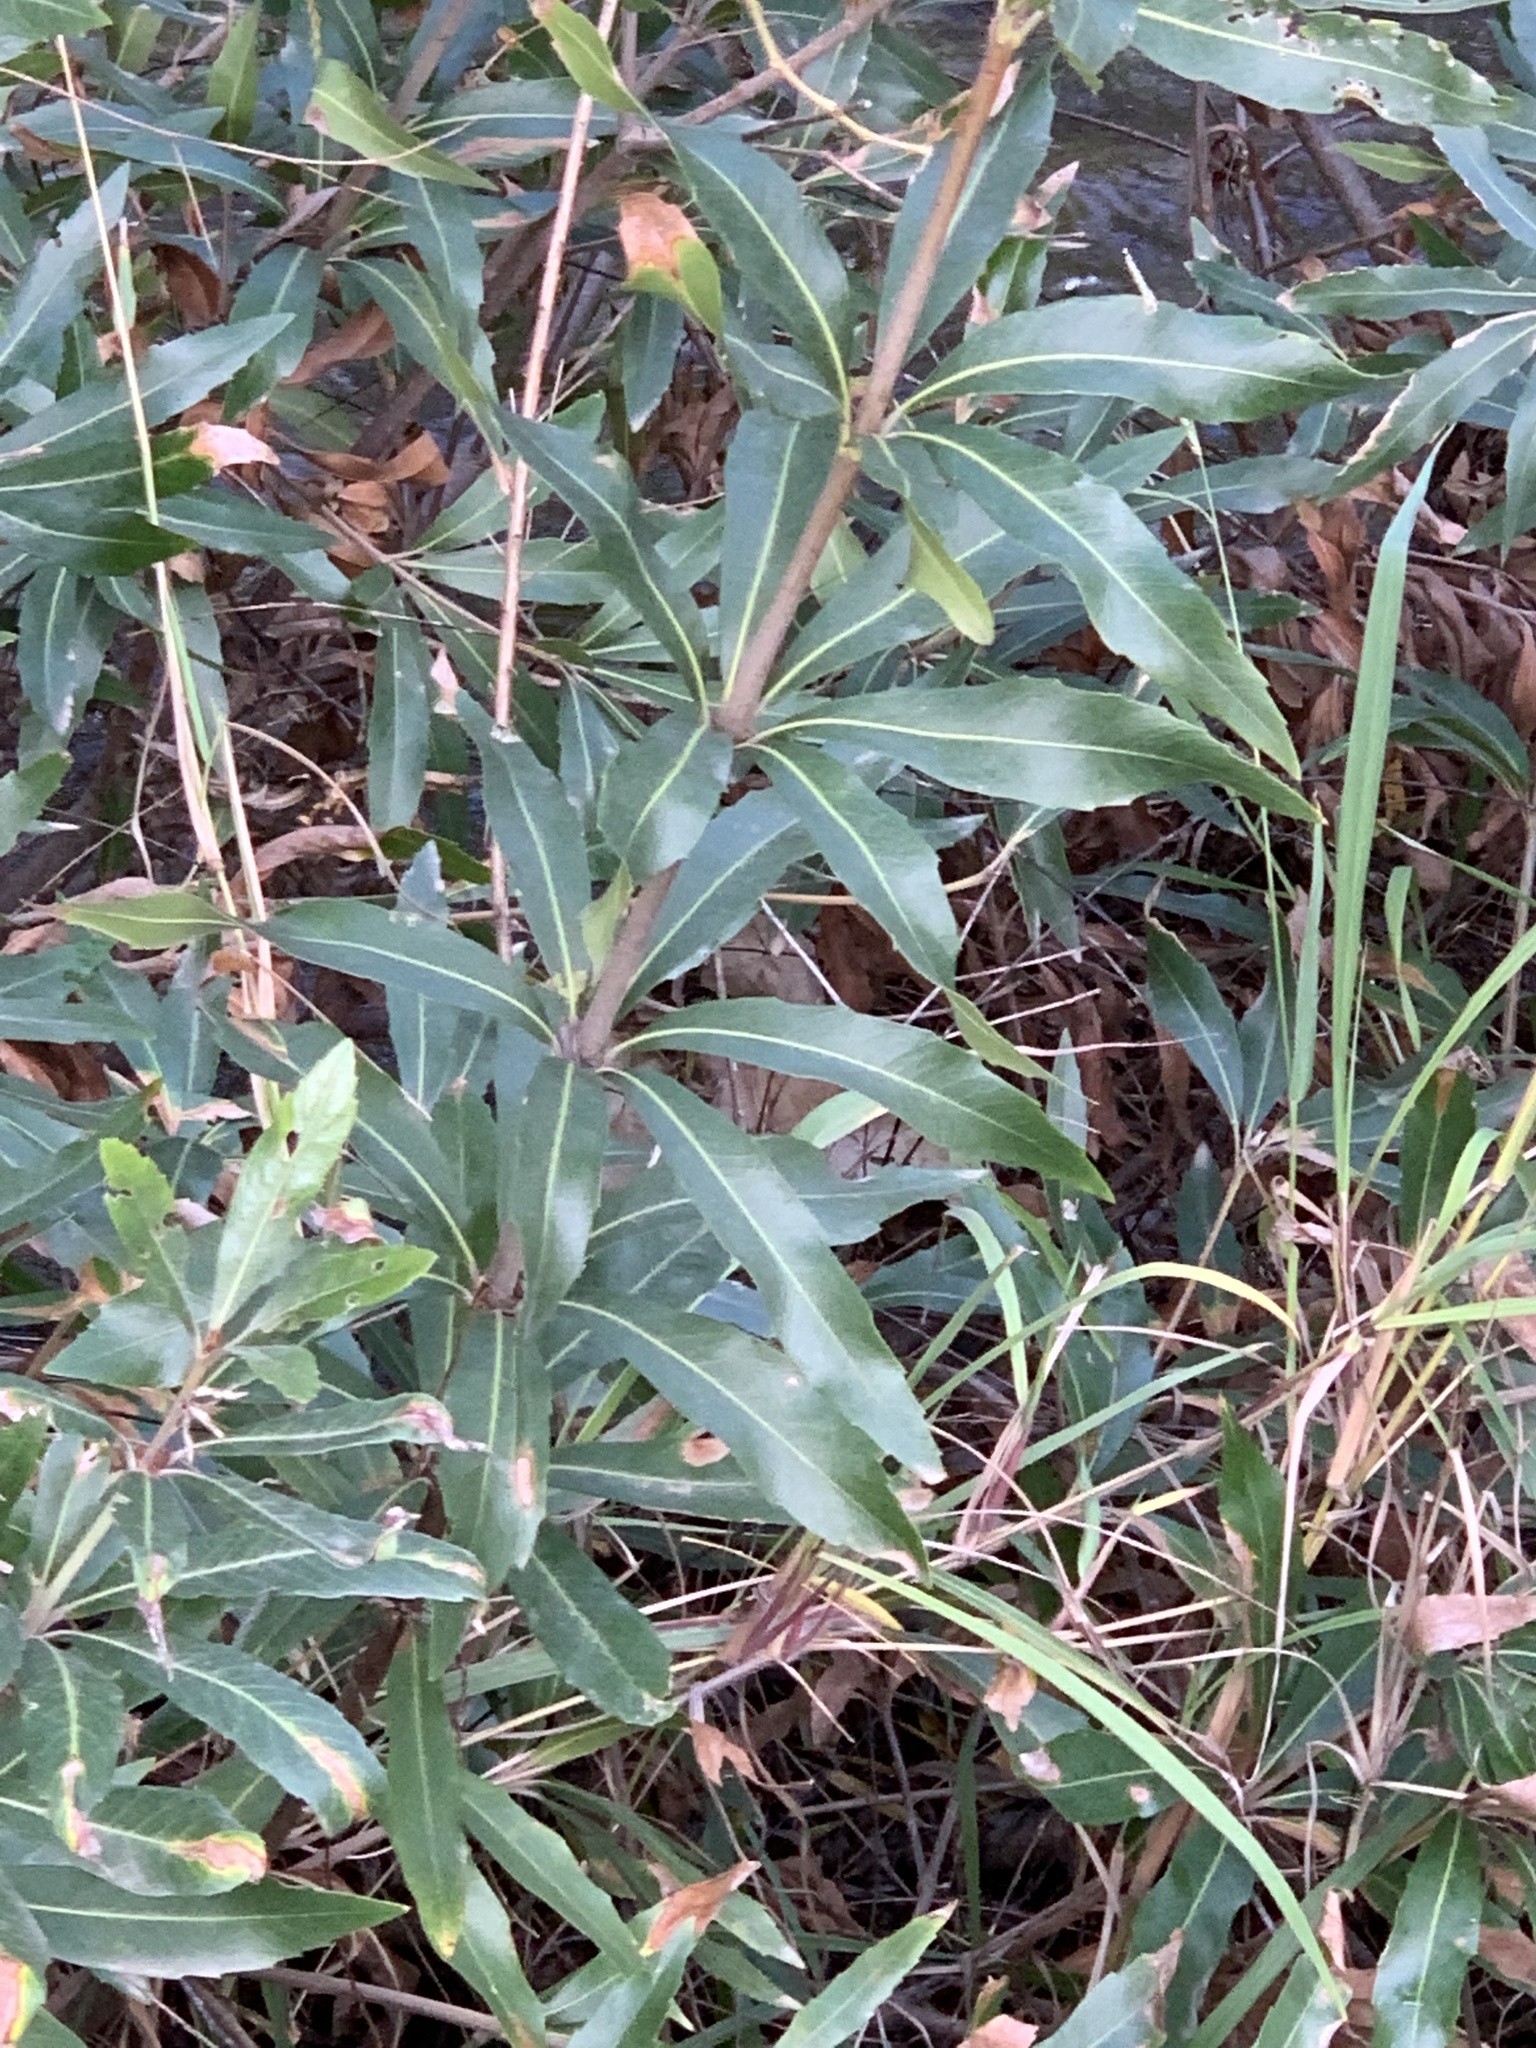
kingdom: Plantae
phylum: Tracheophyta
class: Magnoliopsida
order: Proteales
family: Proteaceae
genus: Brabejum
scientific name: Brabejum stellatifolium
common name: Wild almond
